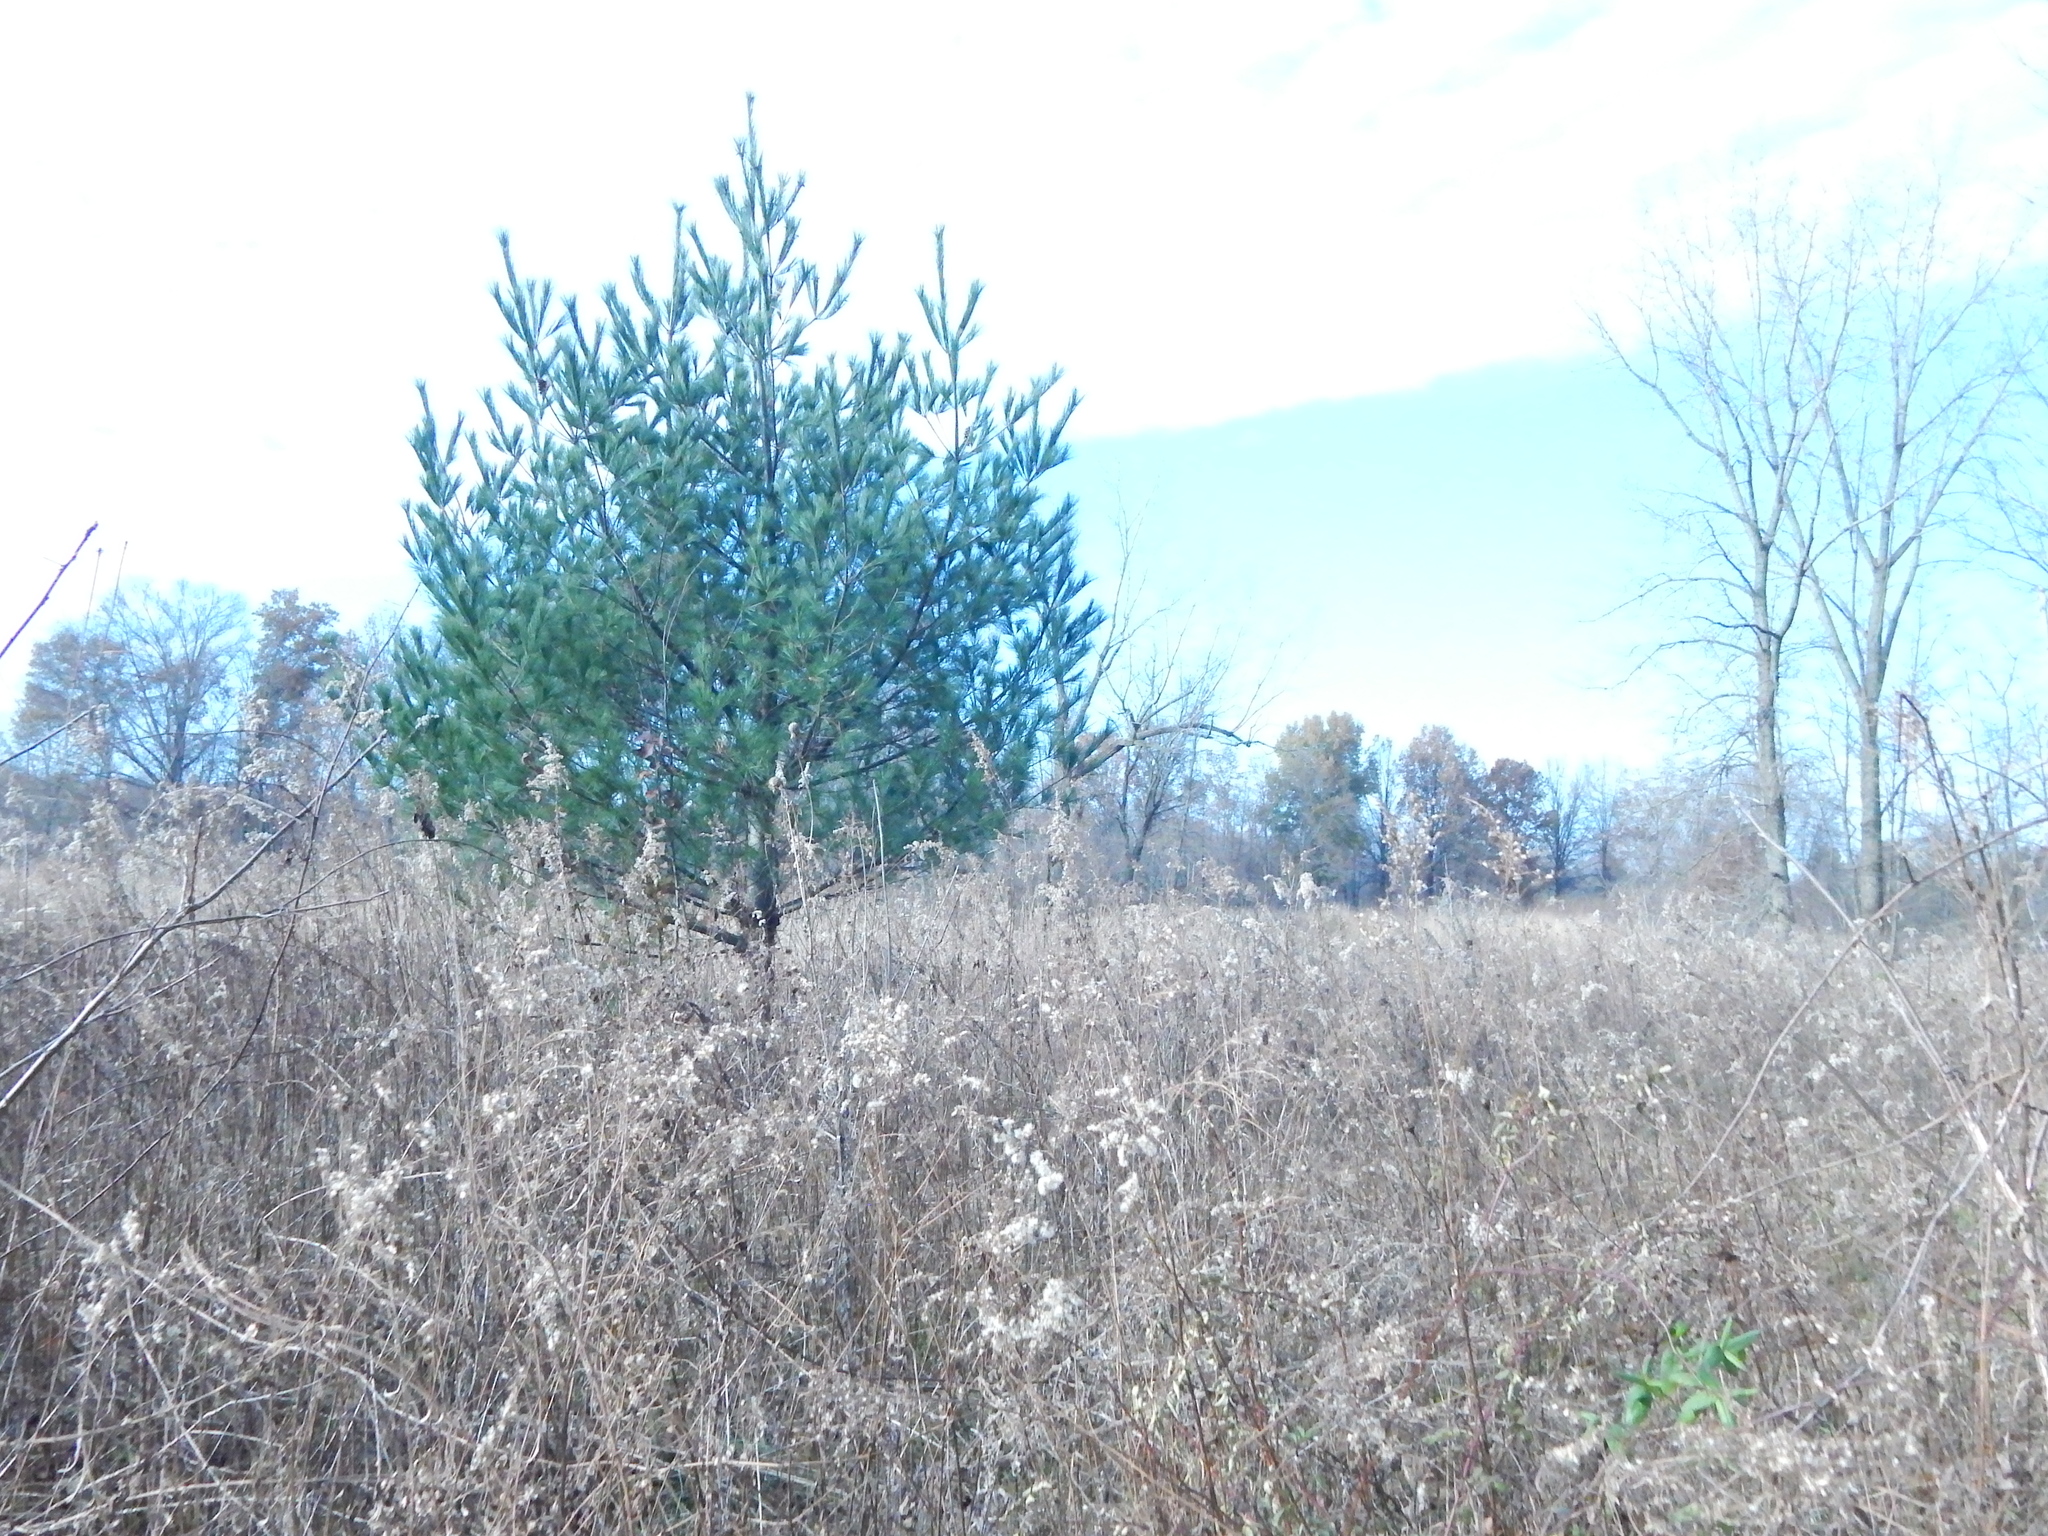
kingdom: Plantae
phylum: Tracheophyta
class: Pinopsida
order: Pinales
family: Pinaceae
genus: Pinus
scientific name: Pinus strobus
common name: Weymouth pine
